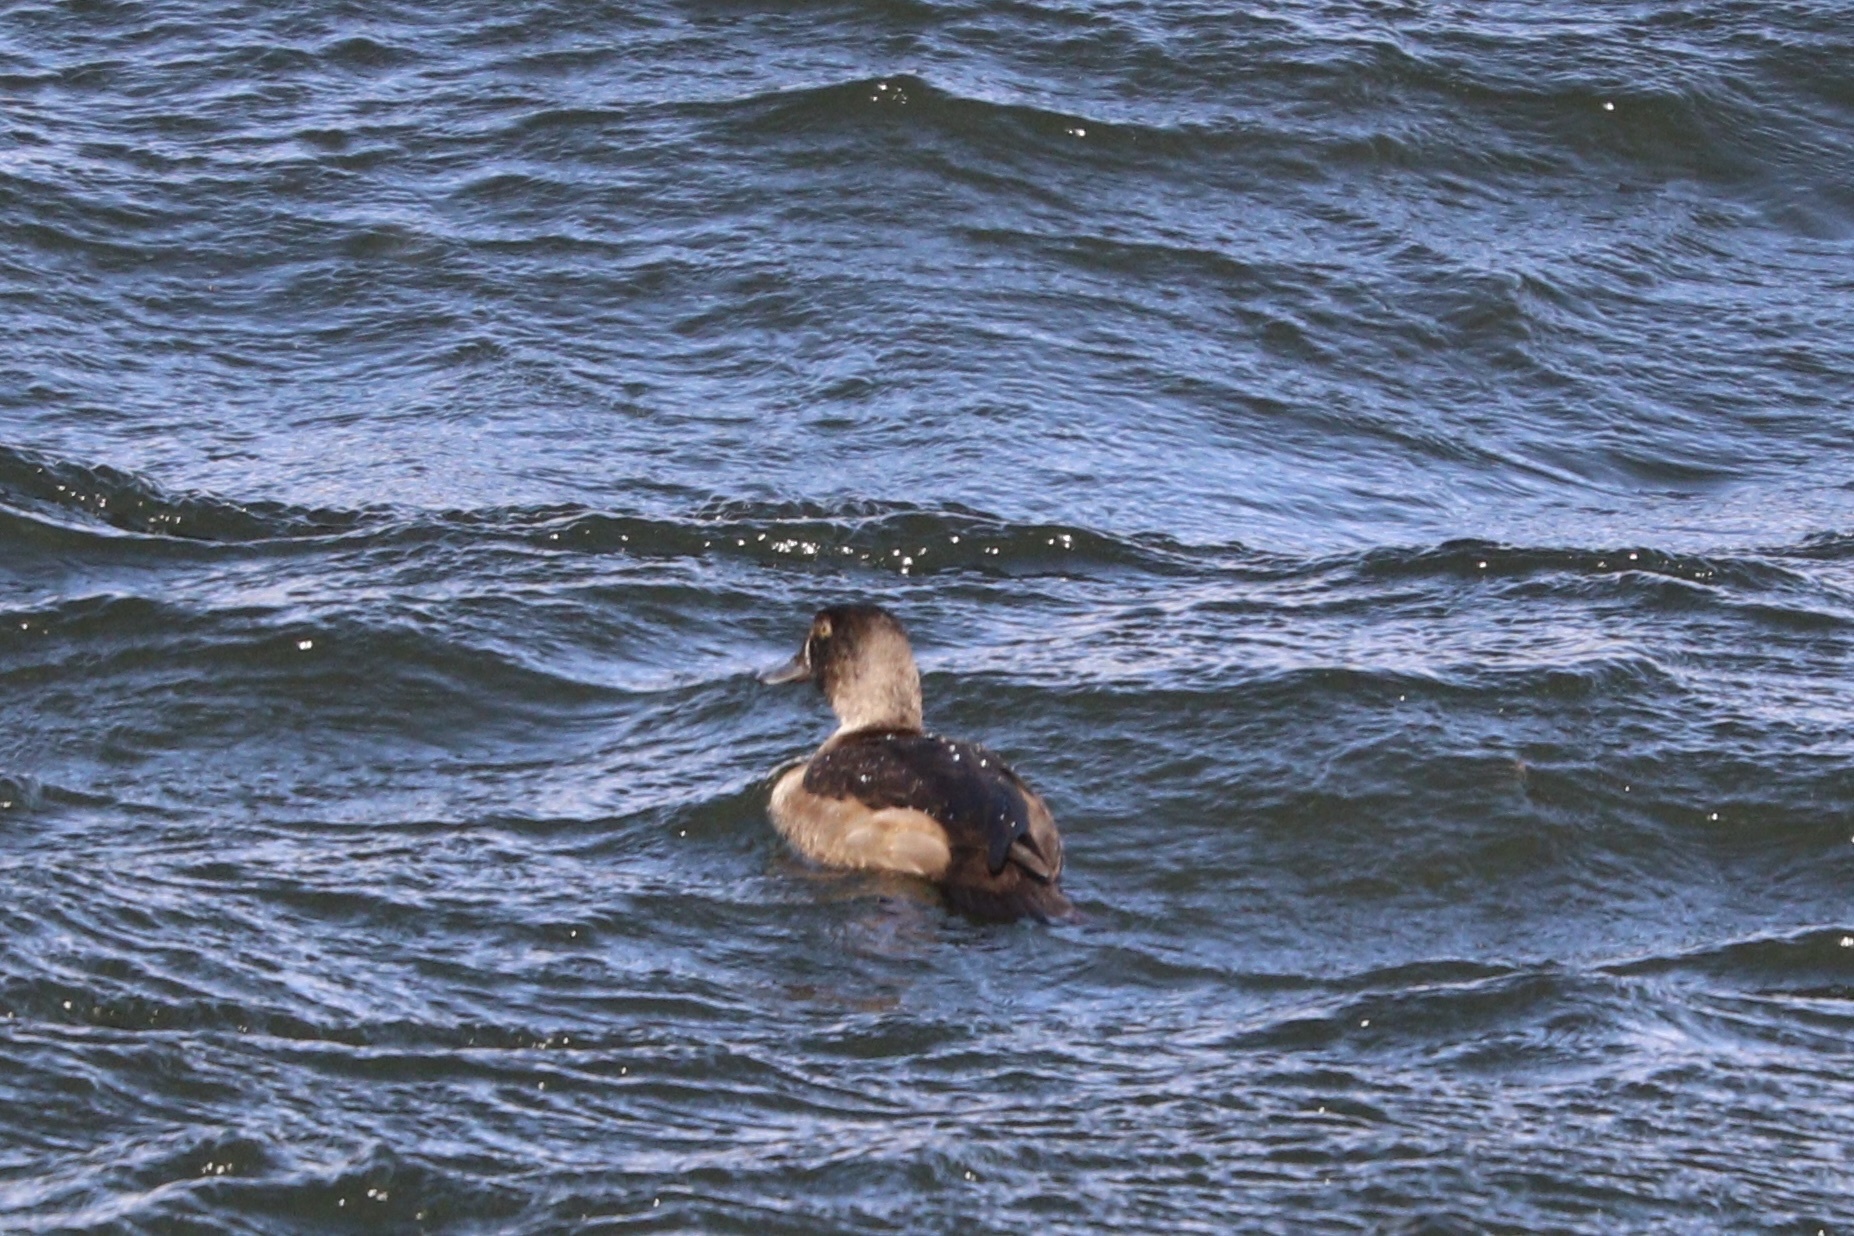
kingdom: Animalia
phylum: Chordata
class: Aves
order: Anseriformes
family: Anatidae
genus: Aythya
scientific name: Aythya collaris
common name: Ring-necked duck
